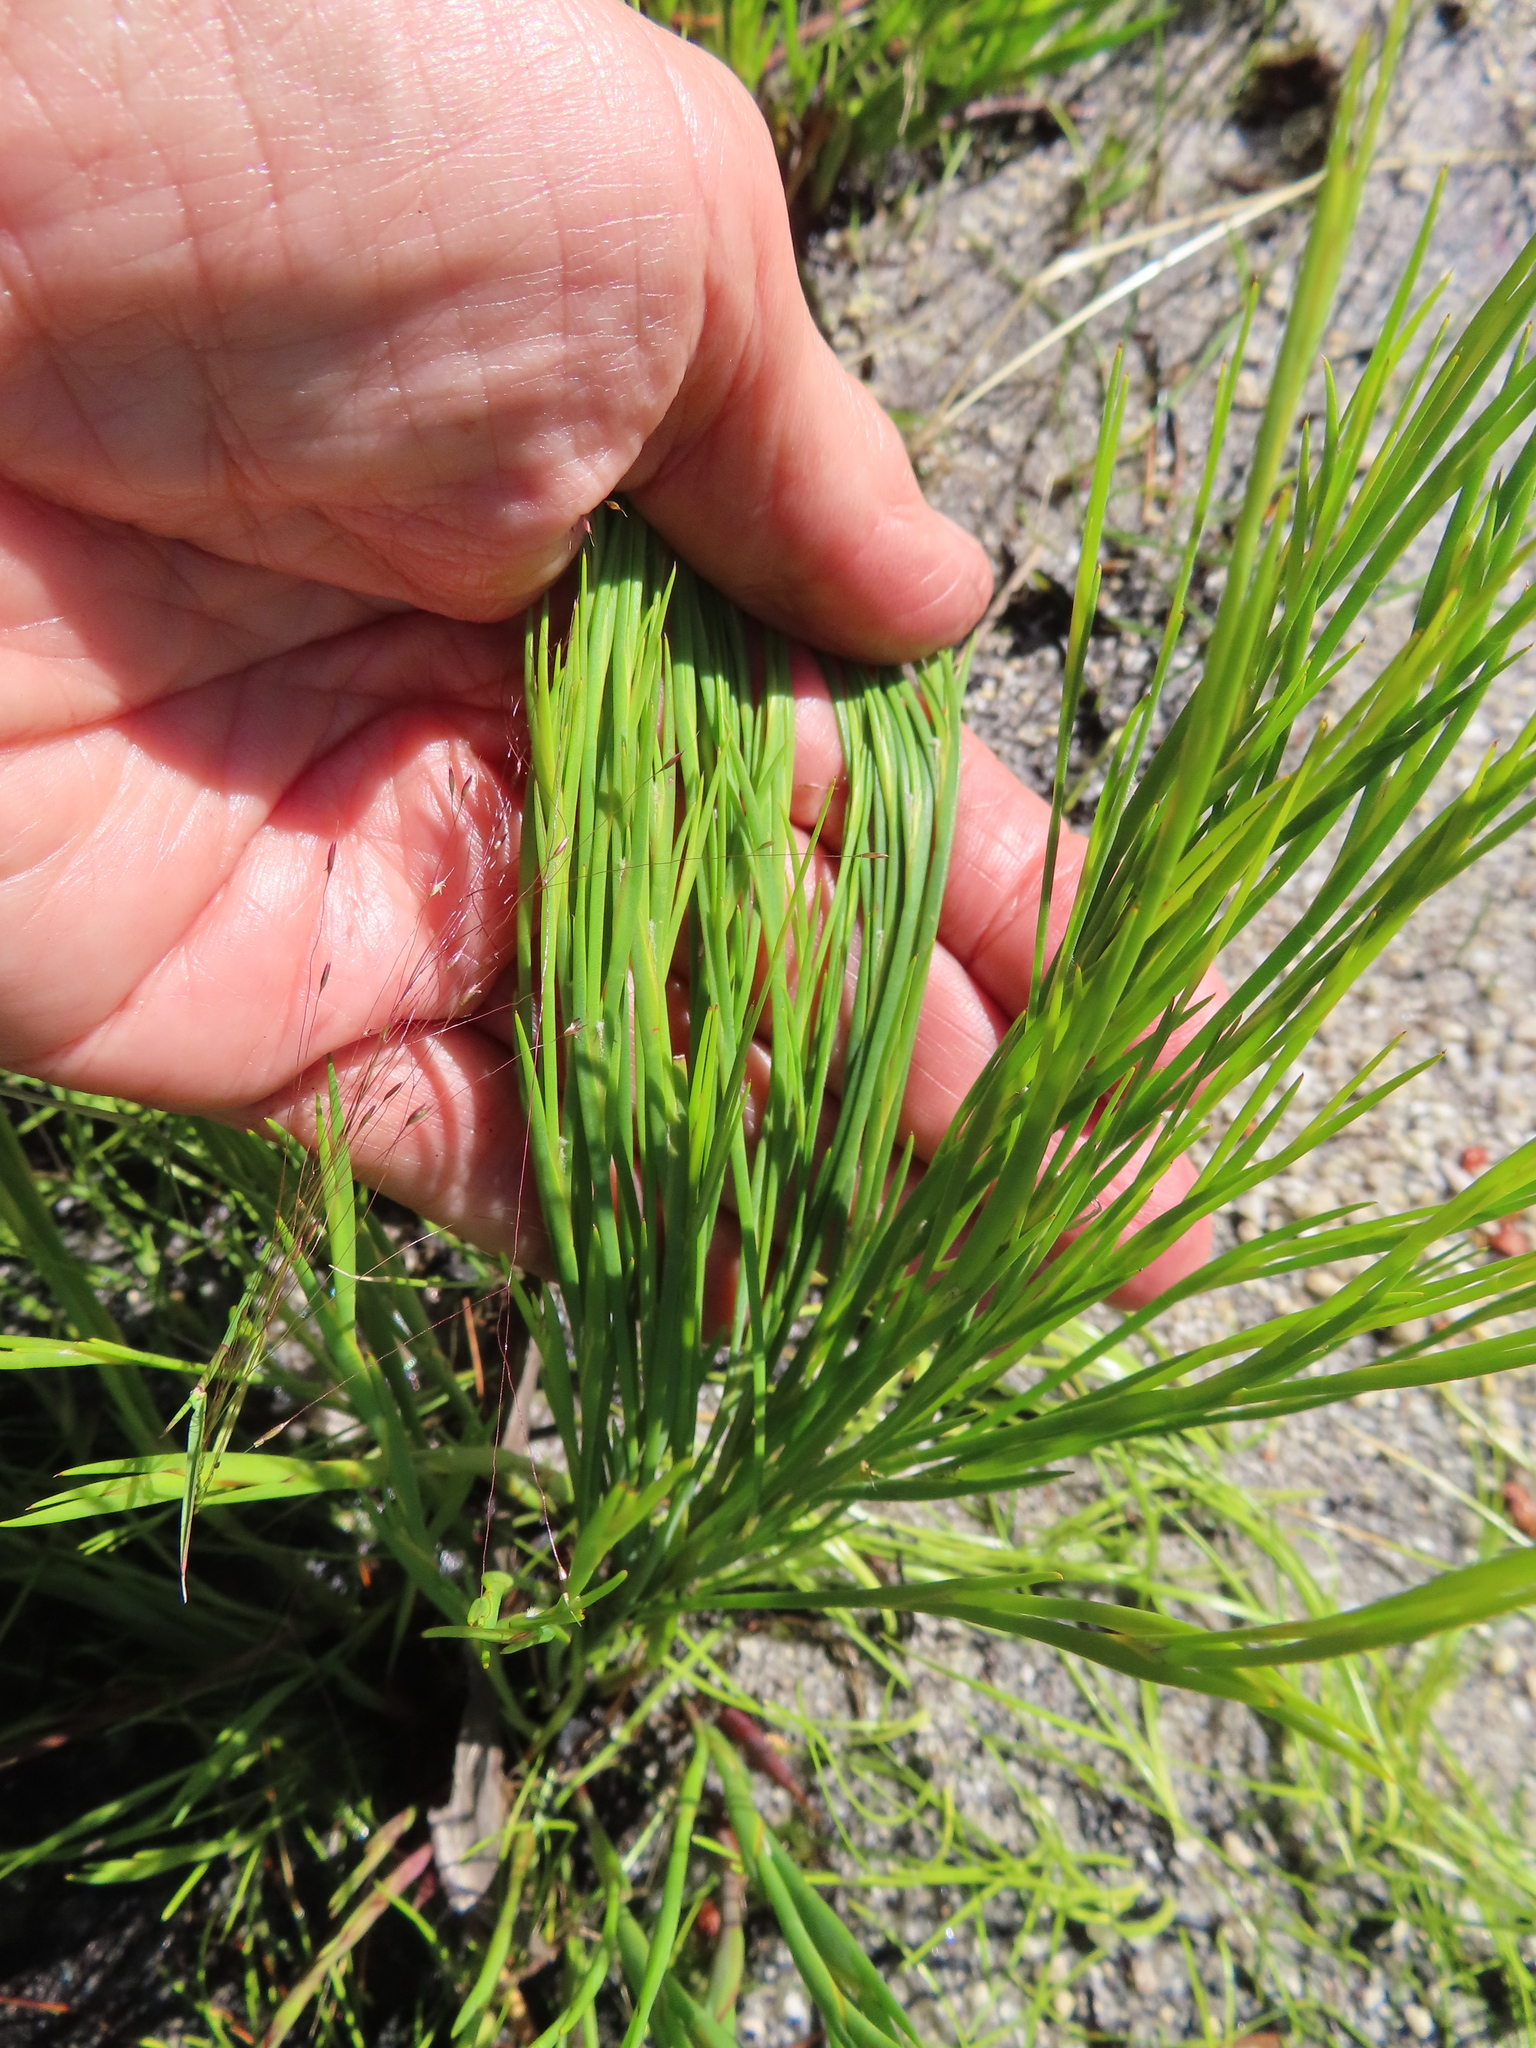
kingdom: Plantae
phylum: Tracheophyta
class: Liliopsida
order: Poales
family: Restionaceae
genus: Platycaulos
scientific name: Platycaulos cascadensis
